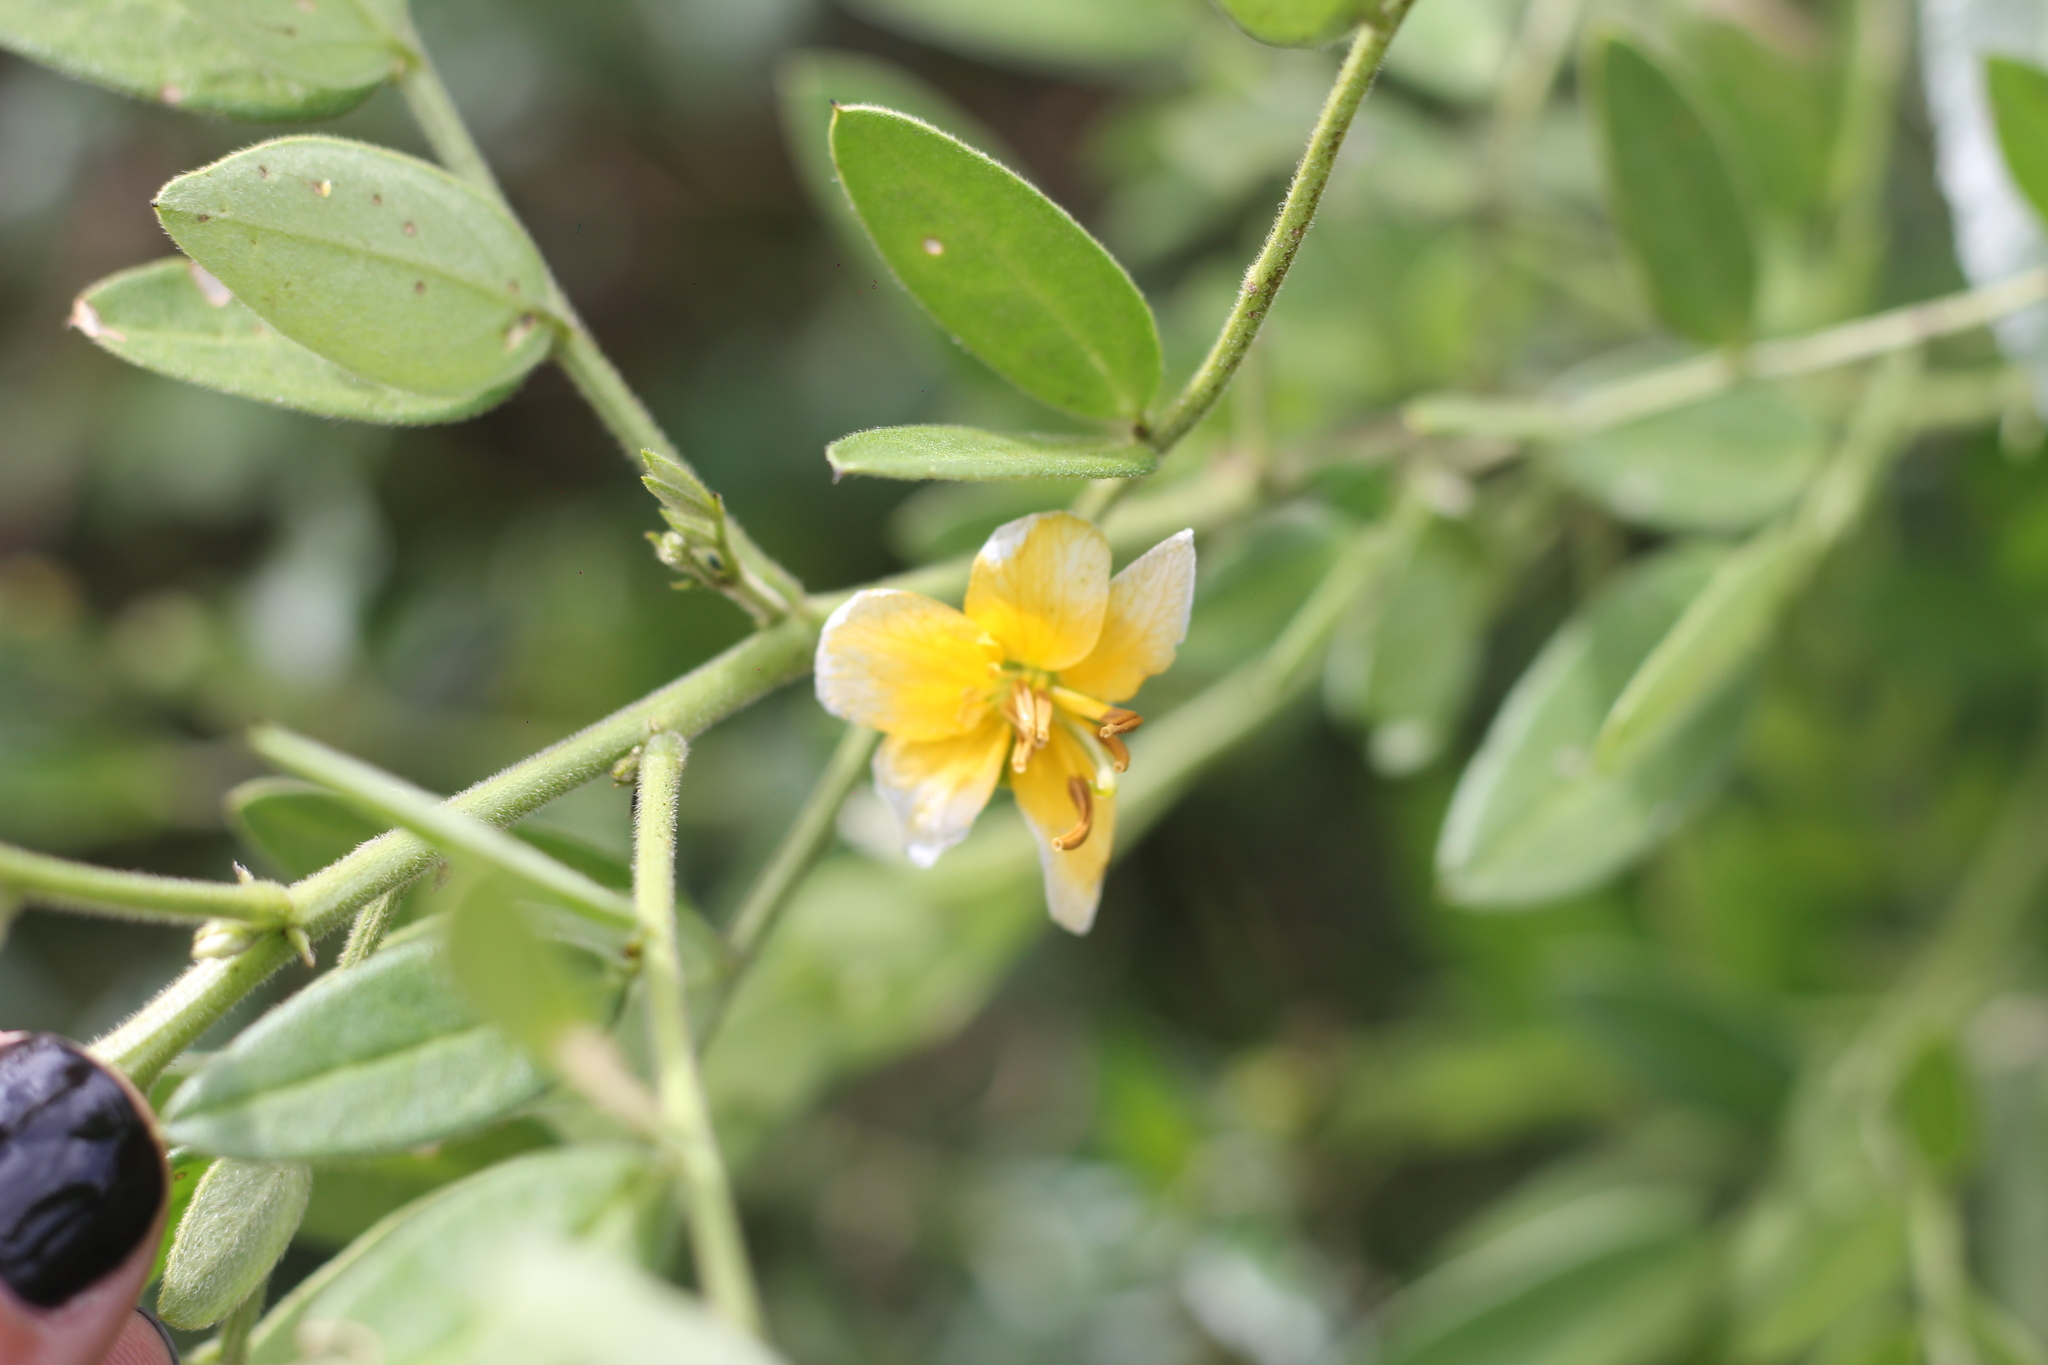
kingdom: Plantae
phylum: Tracheophyta
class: Magnoliopsida
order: Fabales
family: Fabaceae
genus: Senna
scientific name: Senna morongii
